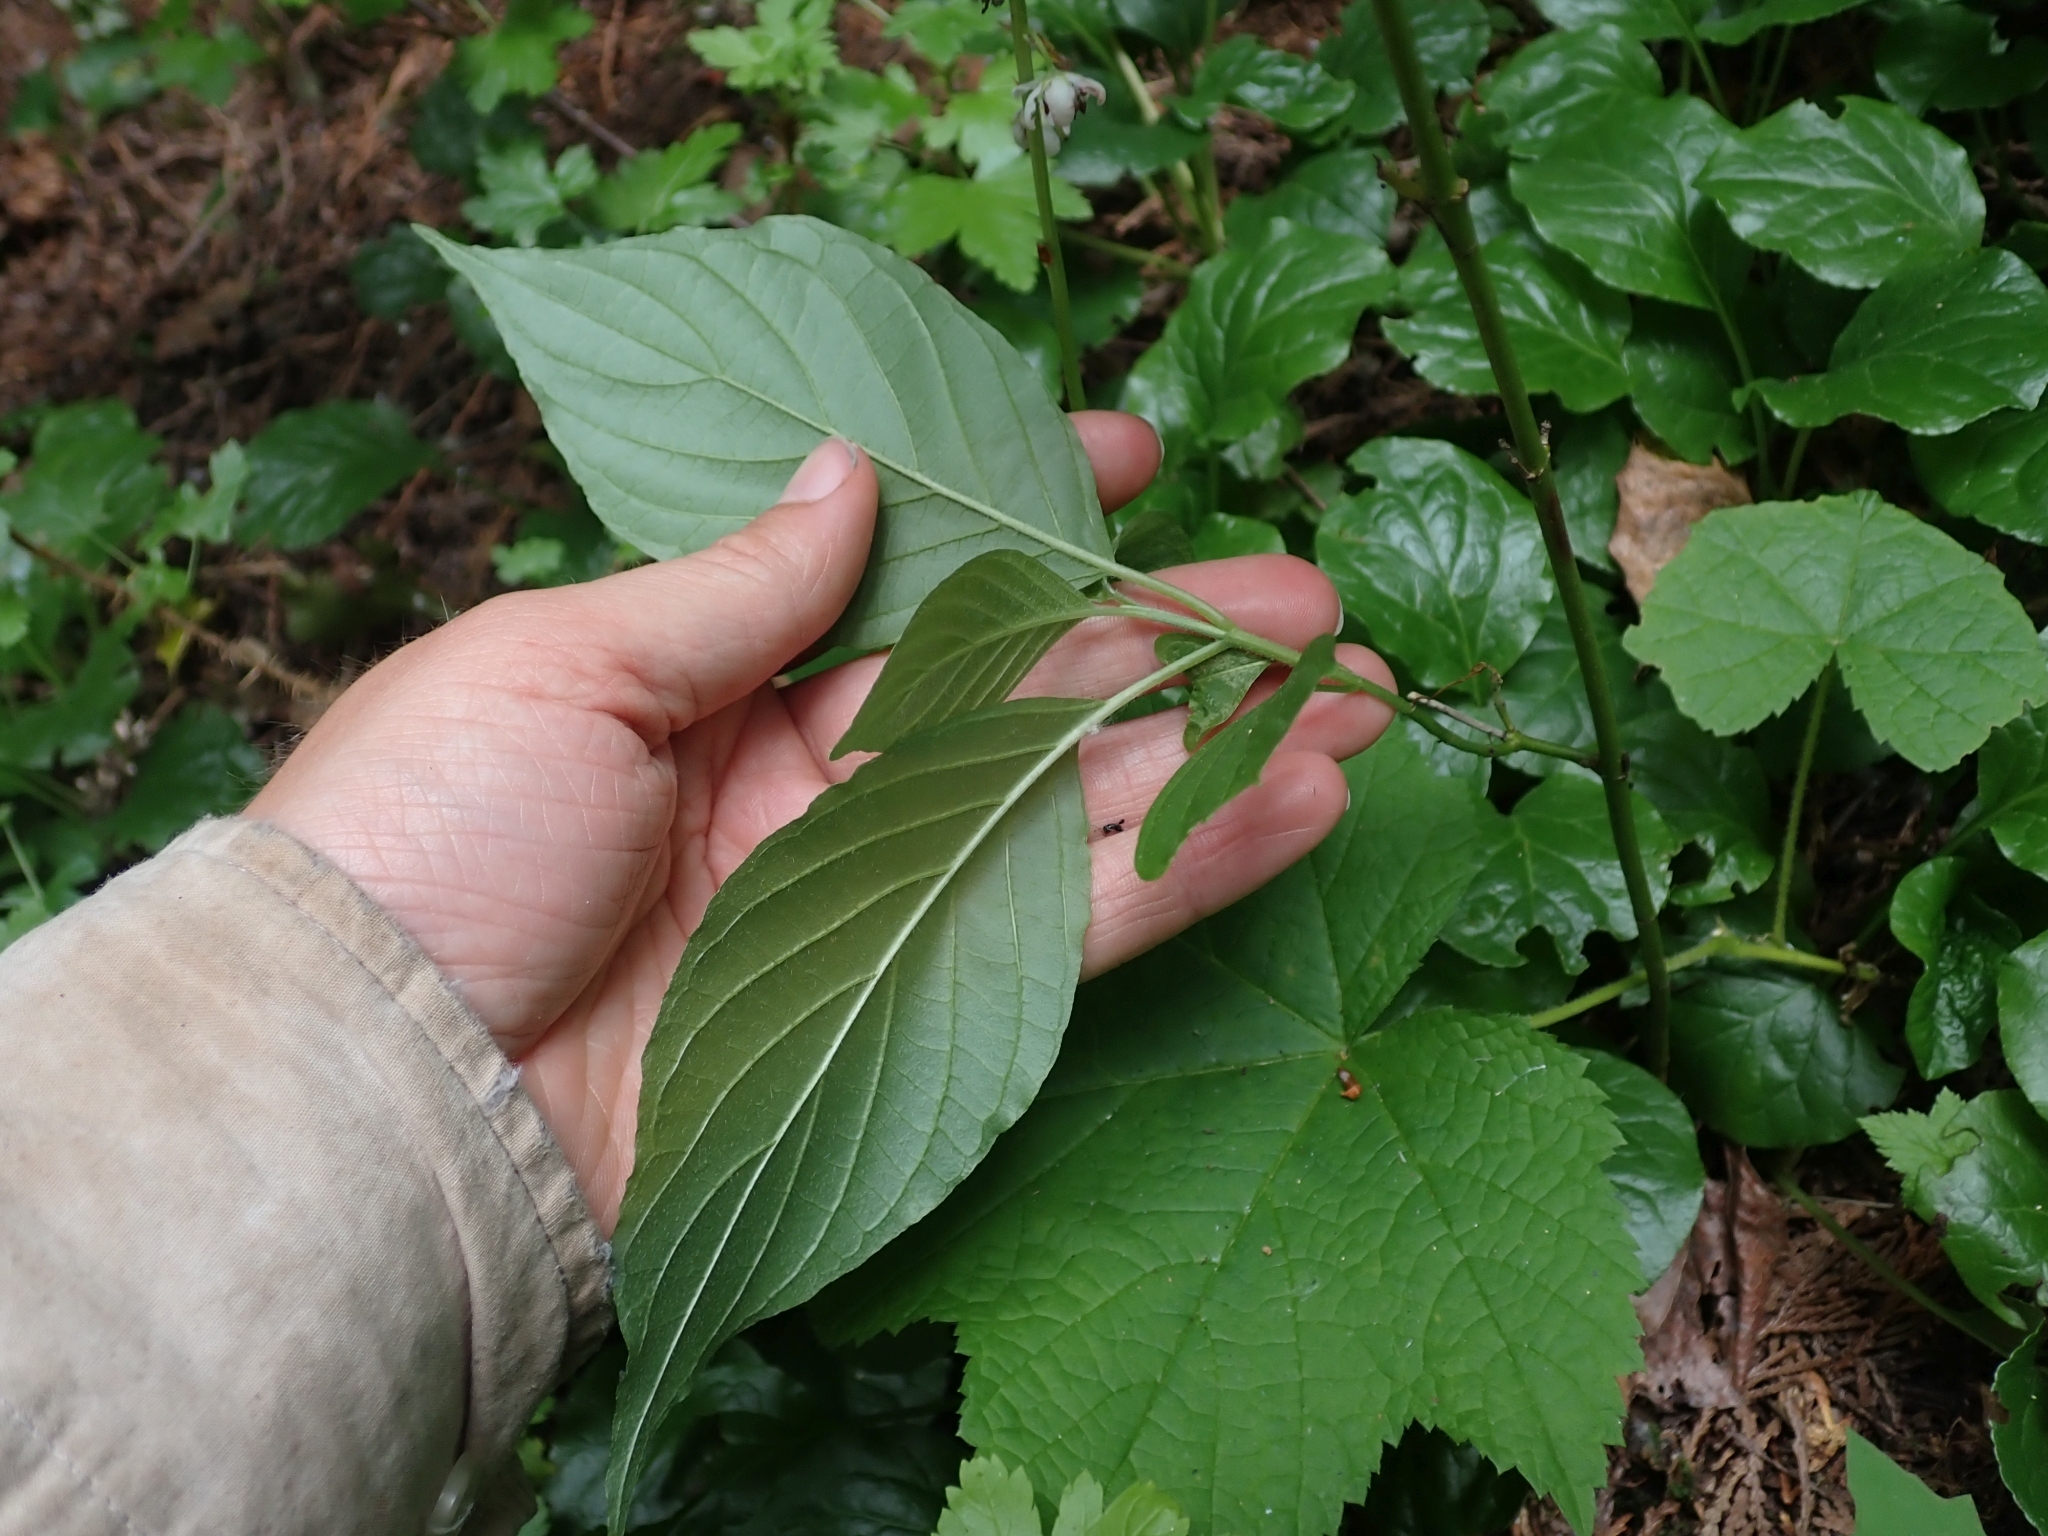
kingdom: Plantae
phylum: Tracheophyta
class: Magnoliopsida
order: Cornales
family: Cornaceae
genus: Cornus
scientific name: Cornus sericea
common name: Red-osier dogwood
